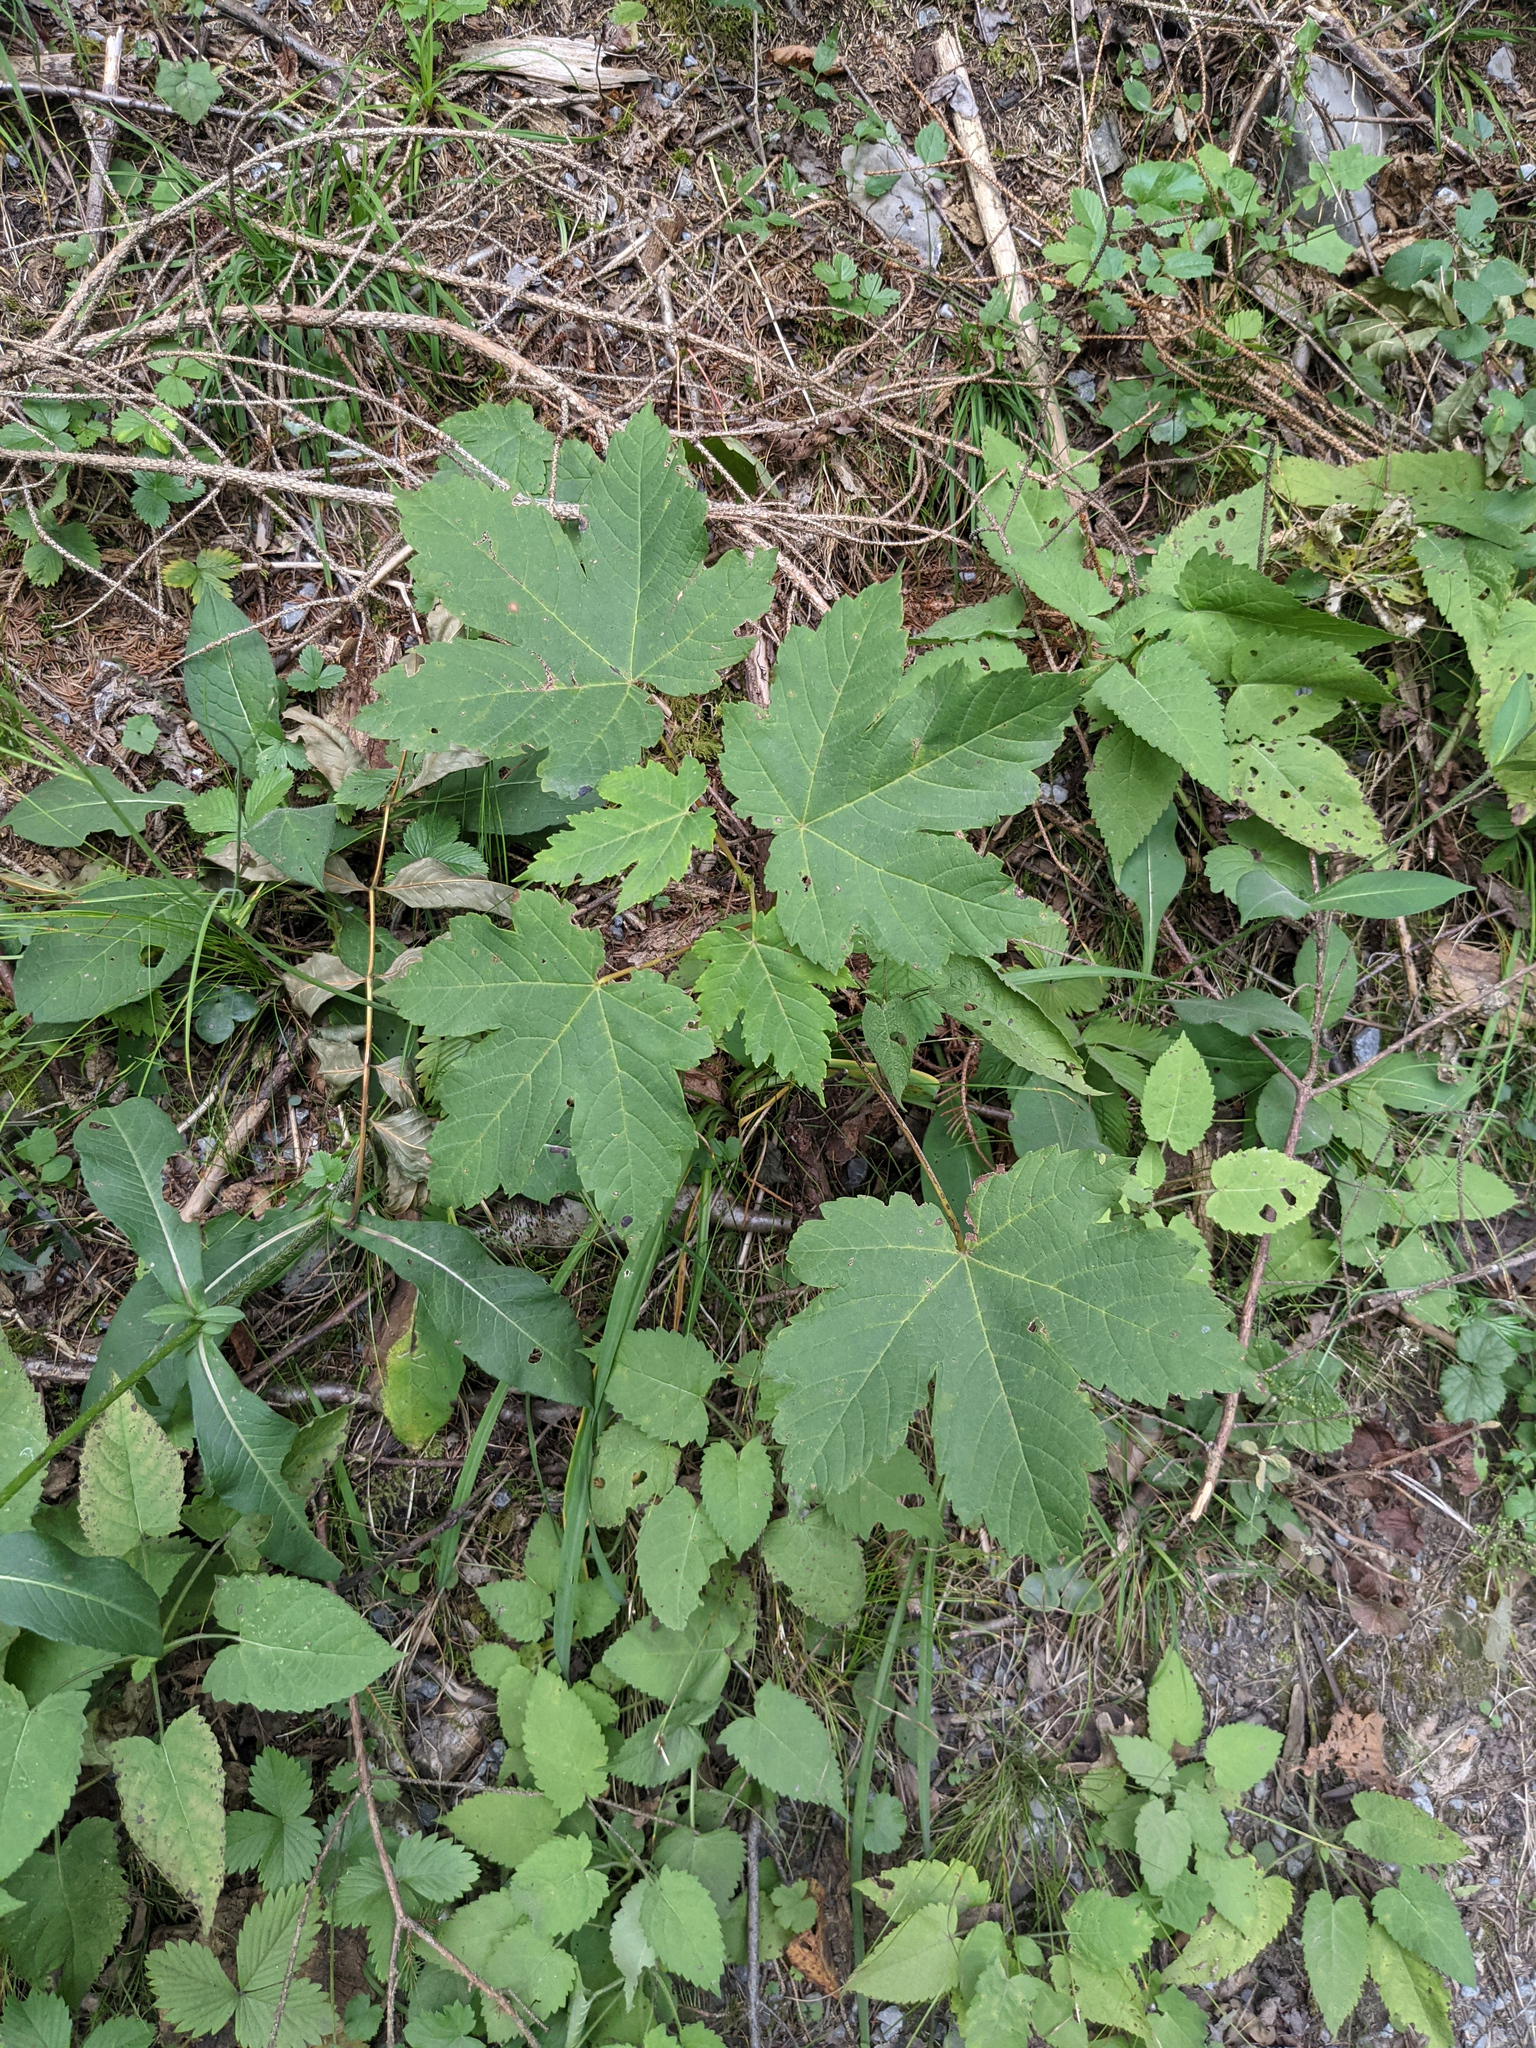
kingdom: Plantae
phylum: Tracheophyta
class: Magnoliopsida
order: Sapindales
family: Sapindaceae
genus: Acer
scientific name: Acer pseudoplatanus
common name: Sycamore
